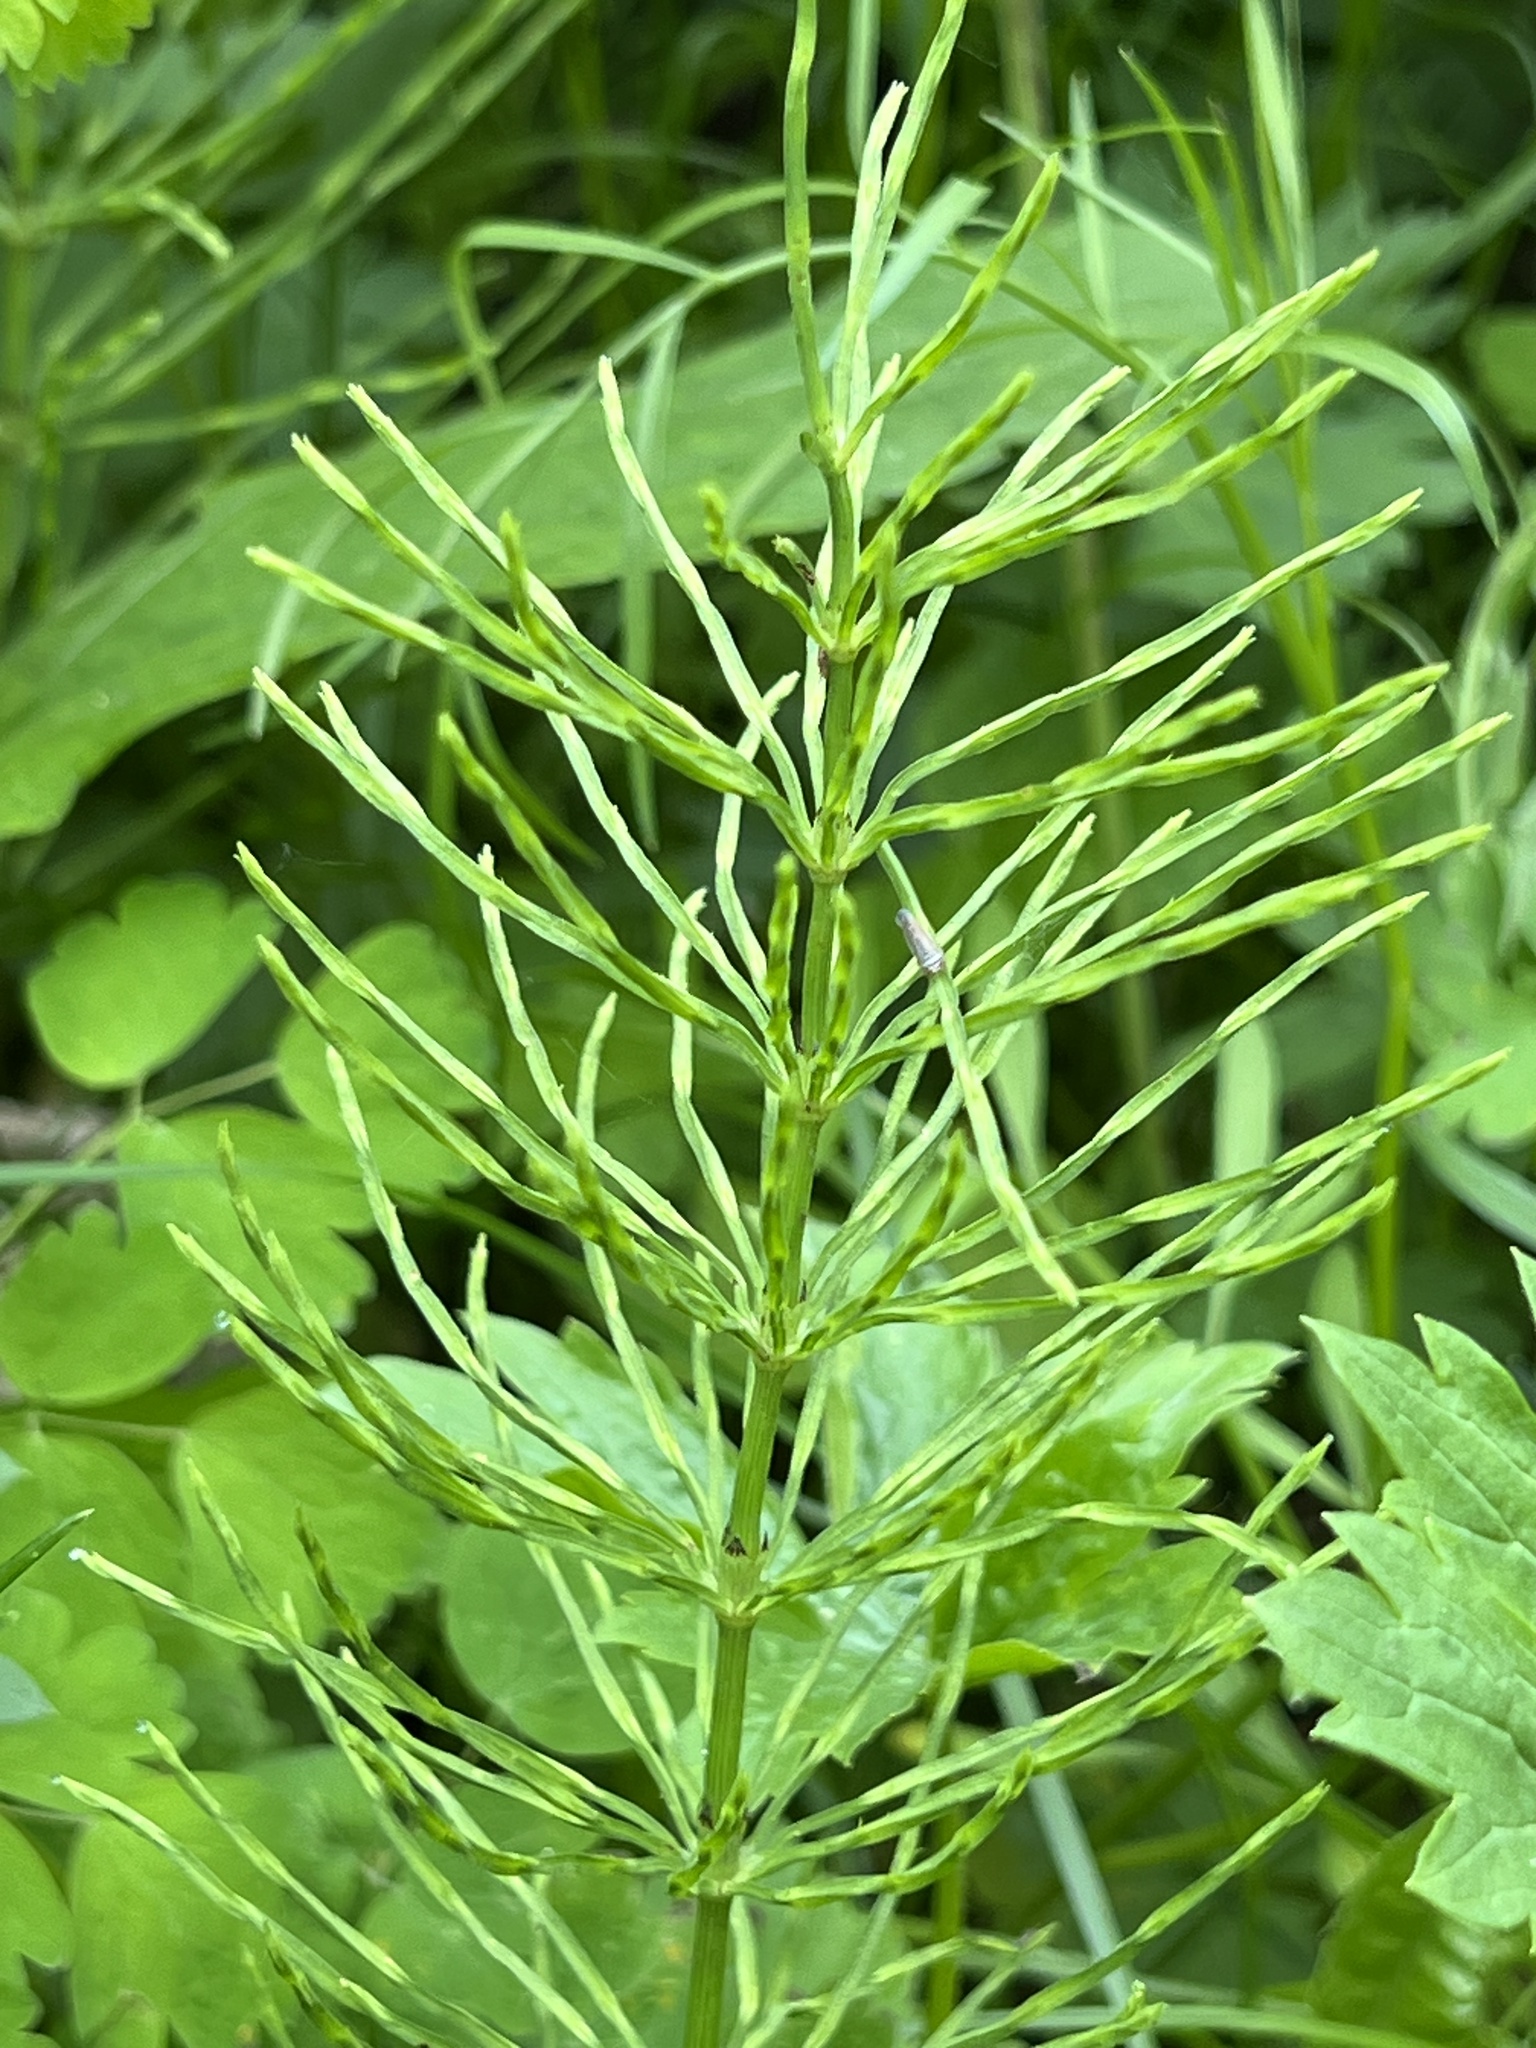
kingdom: Plantae
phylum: Tracheophyta
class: Polypodiopsida
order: Equisetales
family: Equisetaceae
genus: Equisetum
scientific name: Equisetum arvense
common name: Field horsetail
